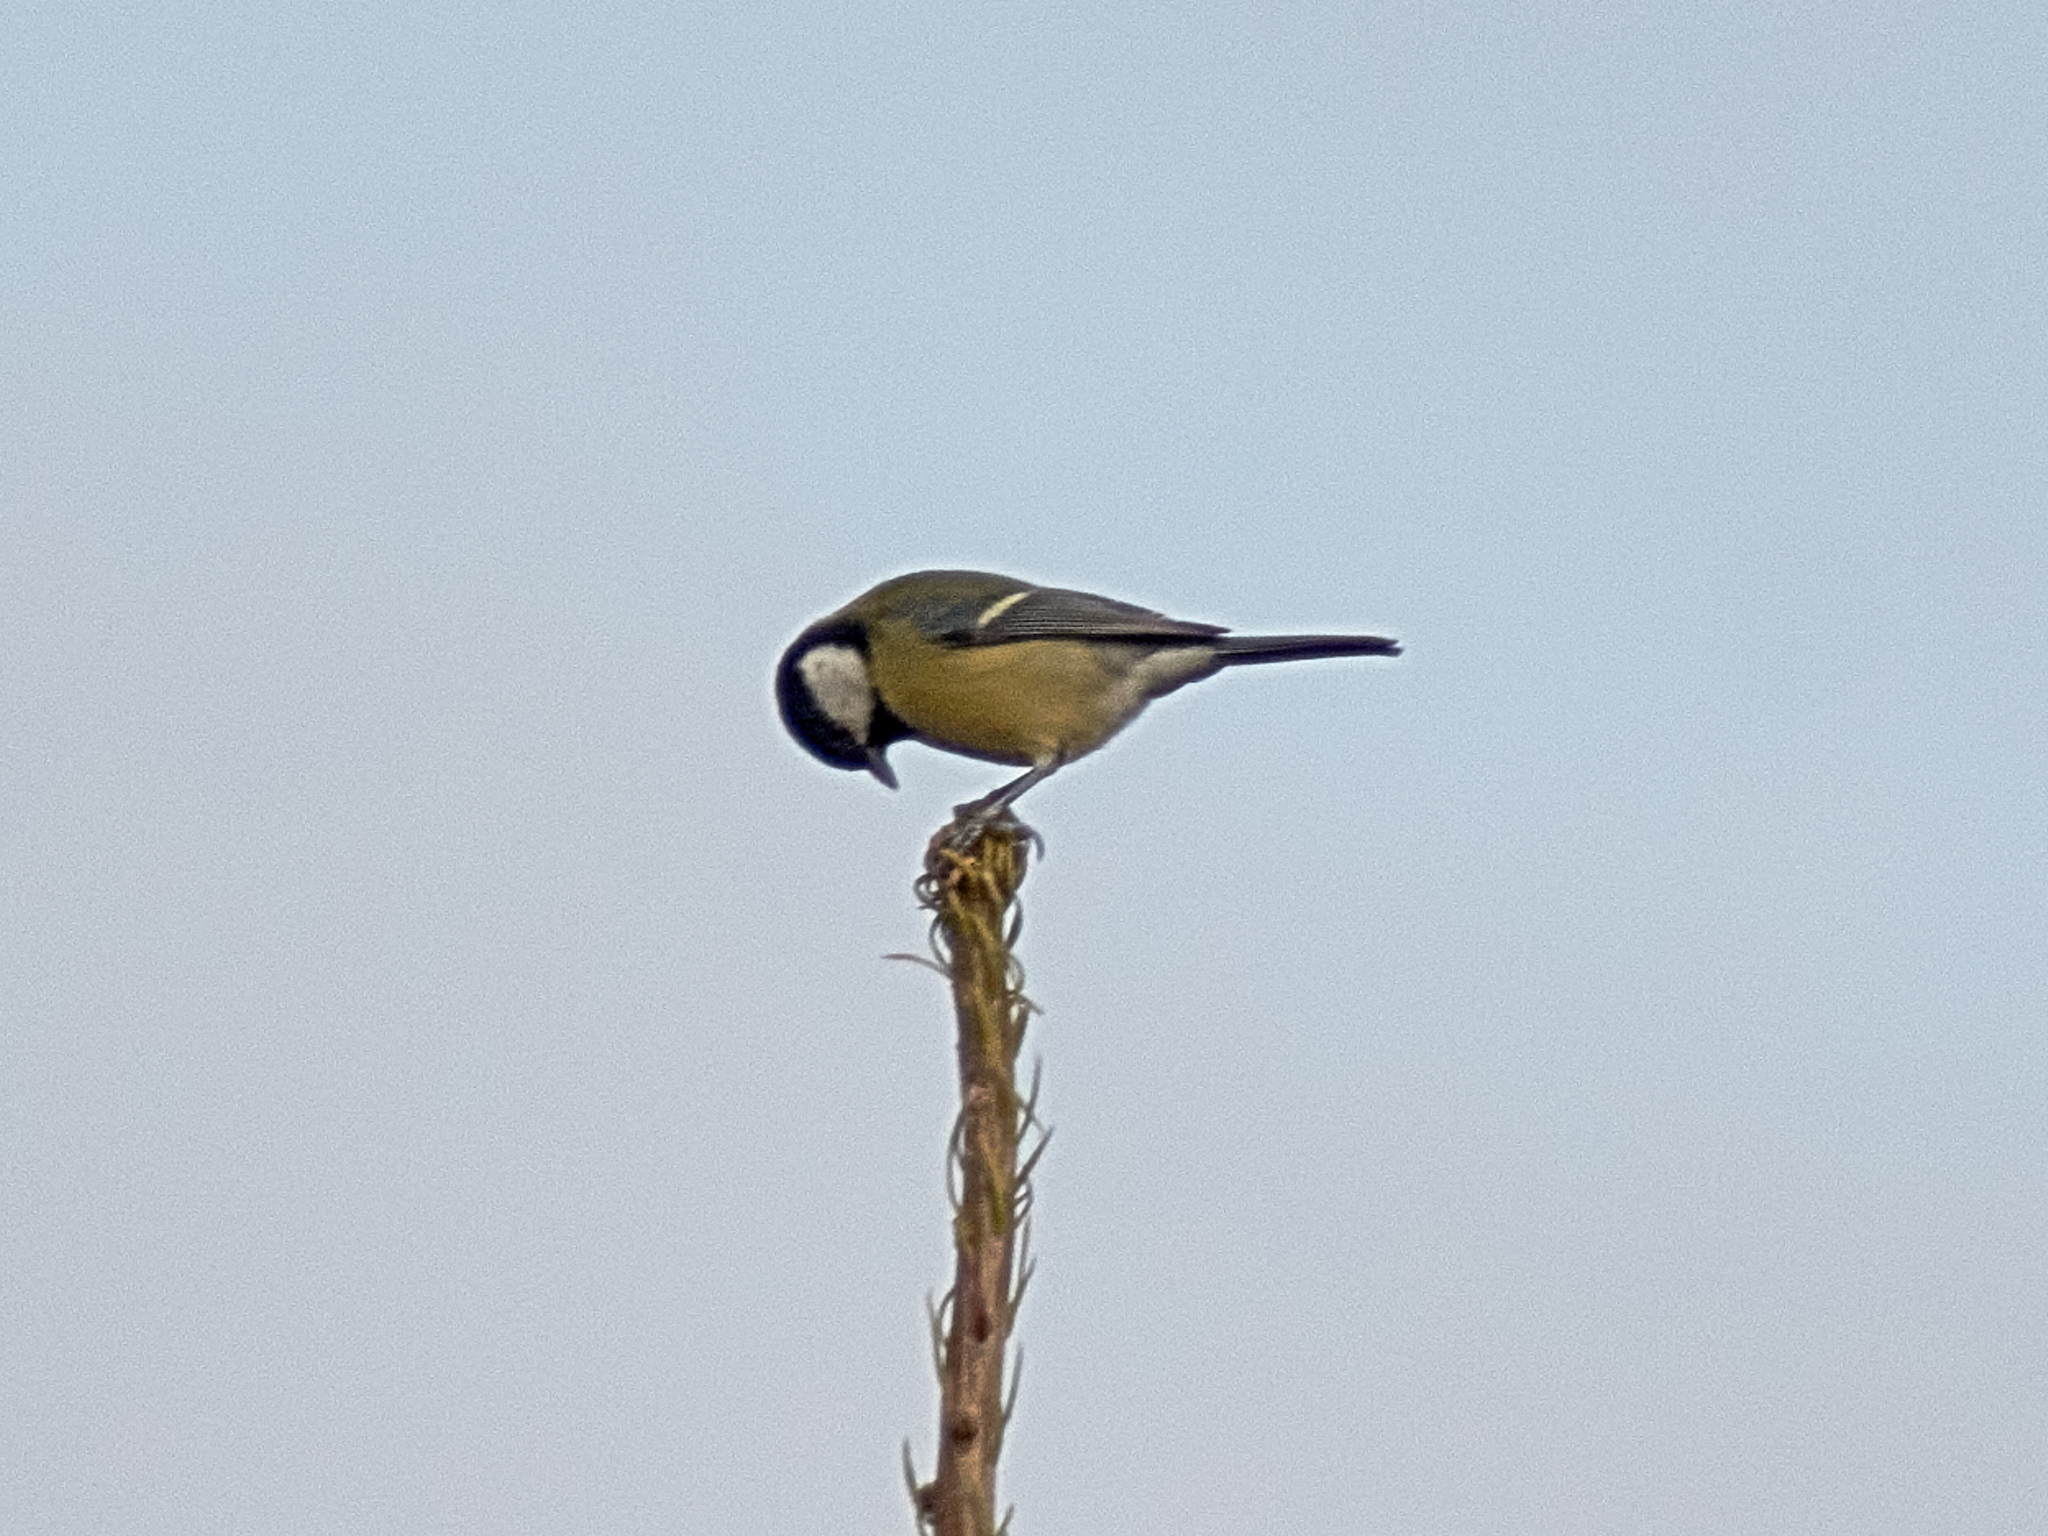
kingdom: Animalia
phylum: Chordata
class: Aves
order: Passeriformes
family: Paridae
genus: Parus
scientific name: Parus major
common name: Great tit
